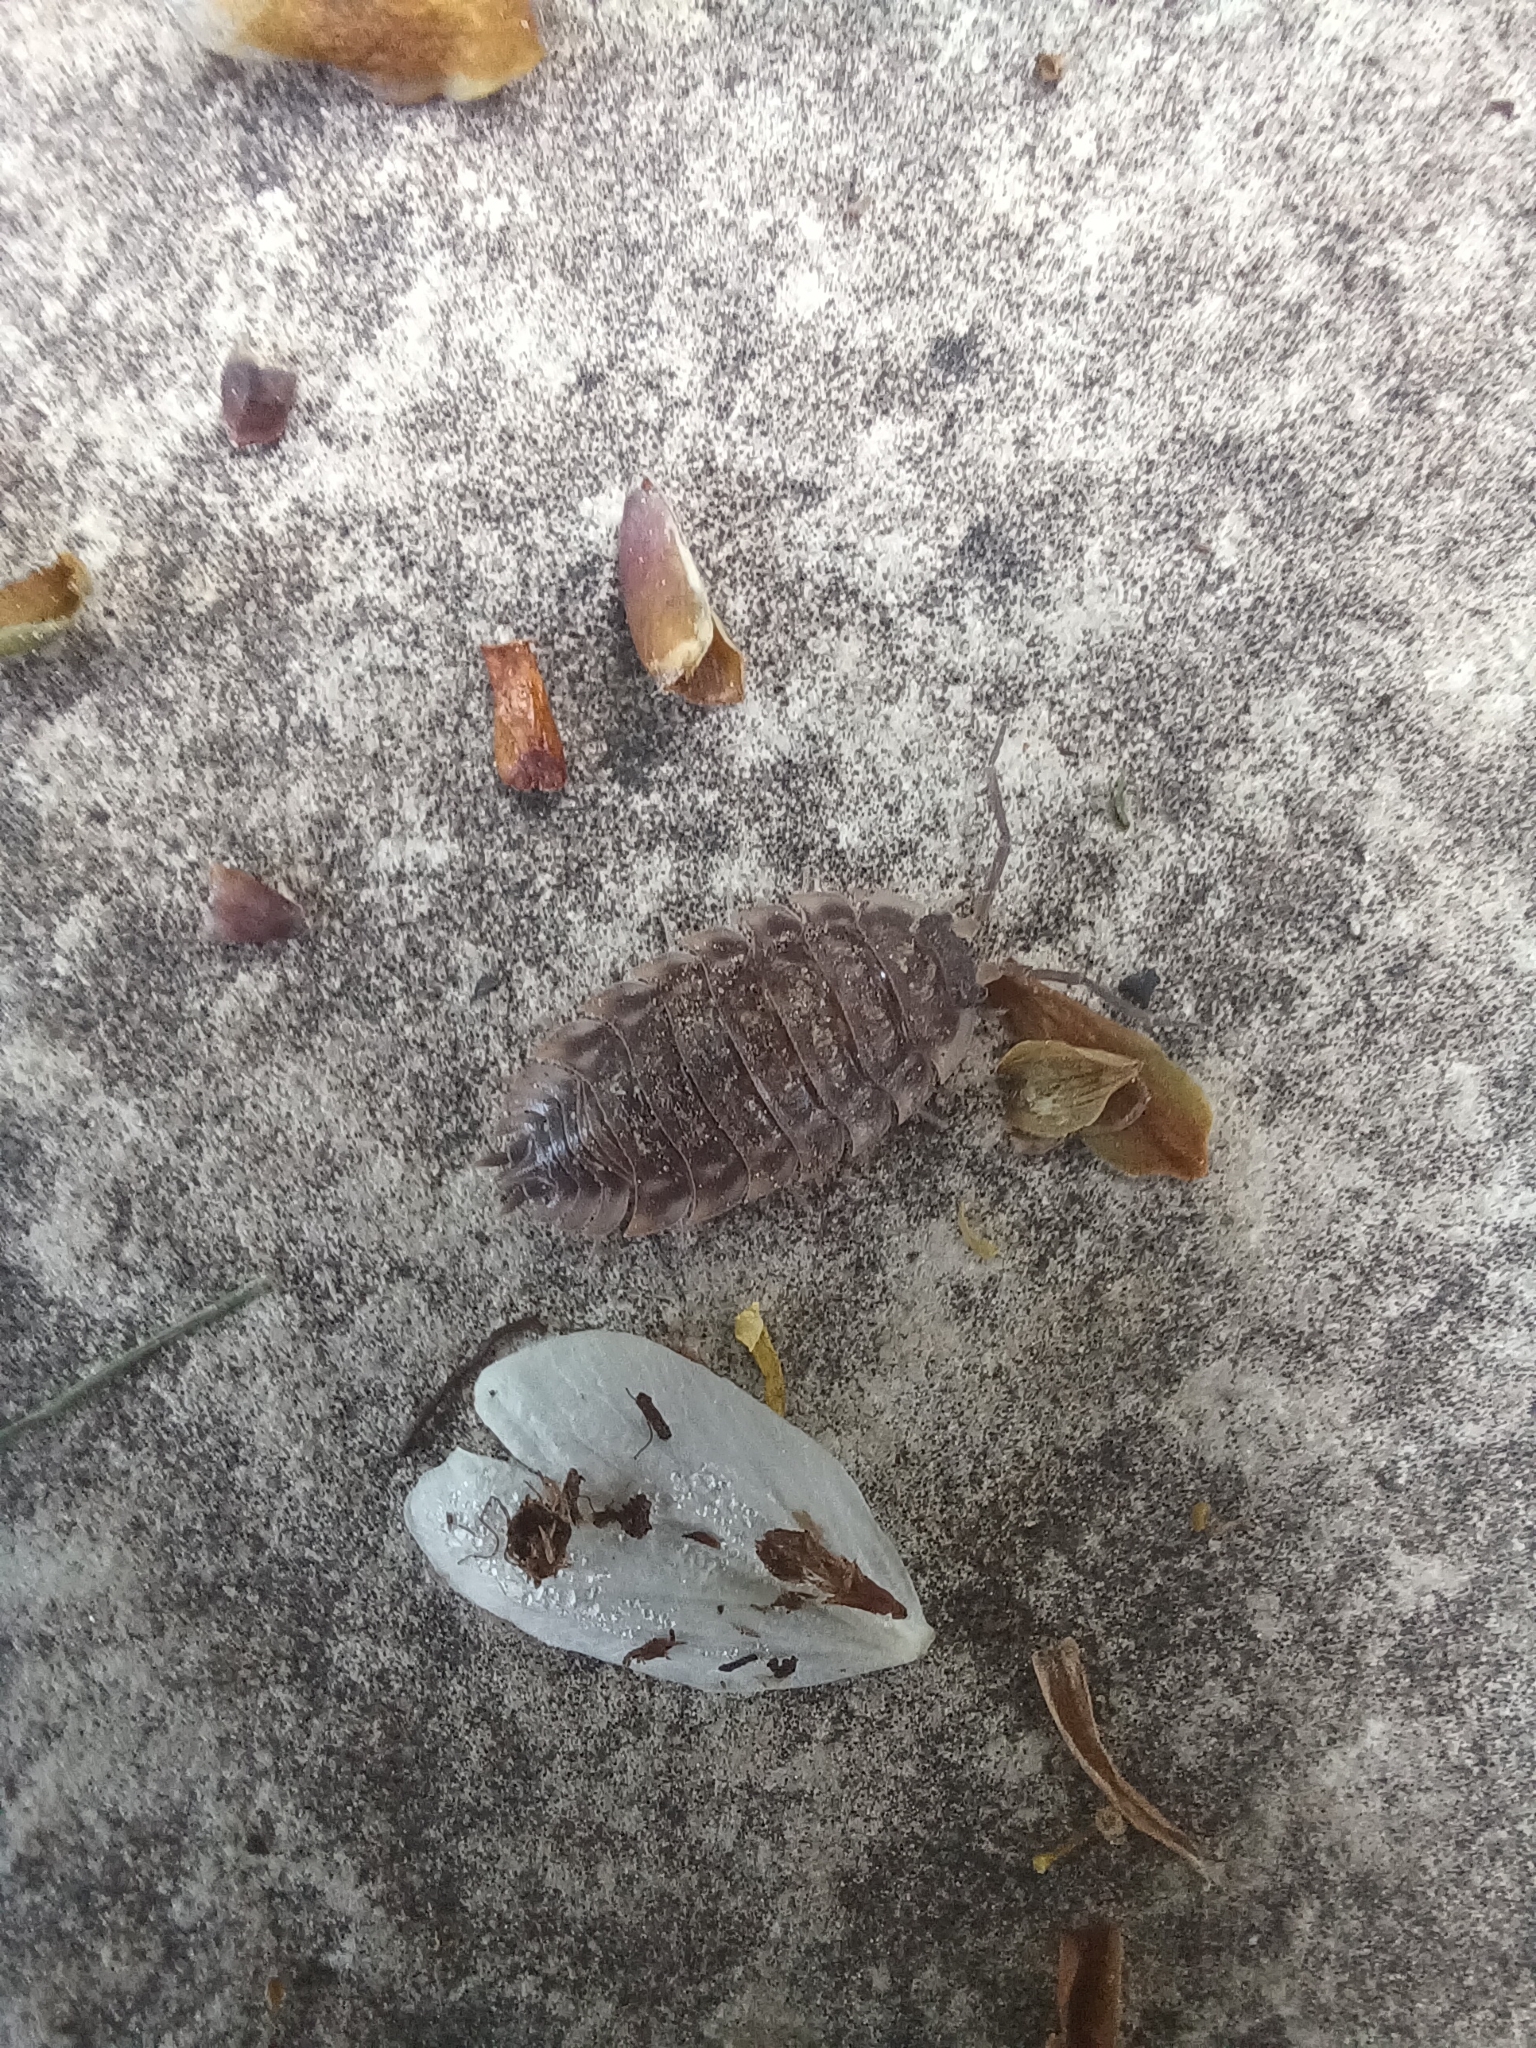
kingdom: Animalia
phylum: Arthropoda
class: Malacostraca
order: Isopoda
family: Oniscidae
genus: Oniscus
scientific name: Oniscus asellus
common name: Common shiny woodlouse
